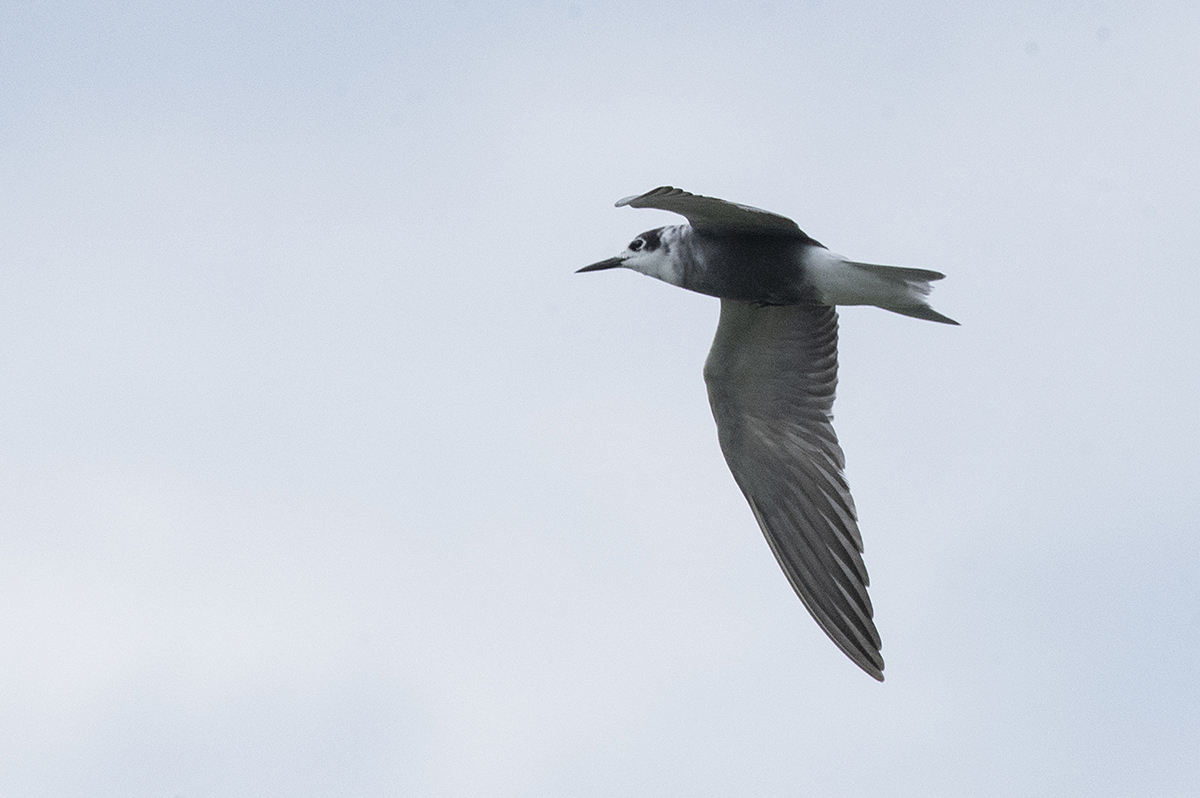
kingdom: Animalia
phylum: Chordata
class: Aves
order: Charadriiformes
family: Laridae
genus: Chlidonias
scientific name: Chlidonias niger
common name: Black tern
